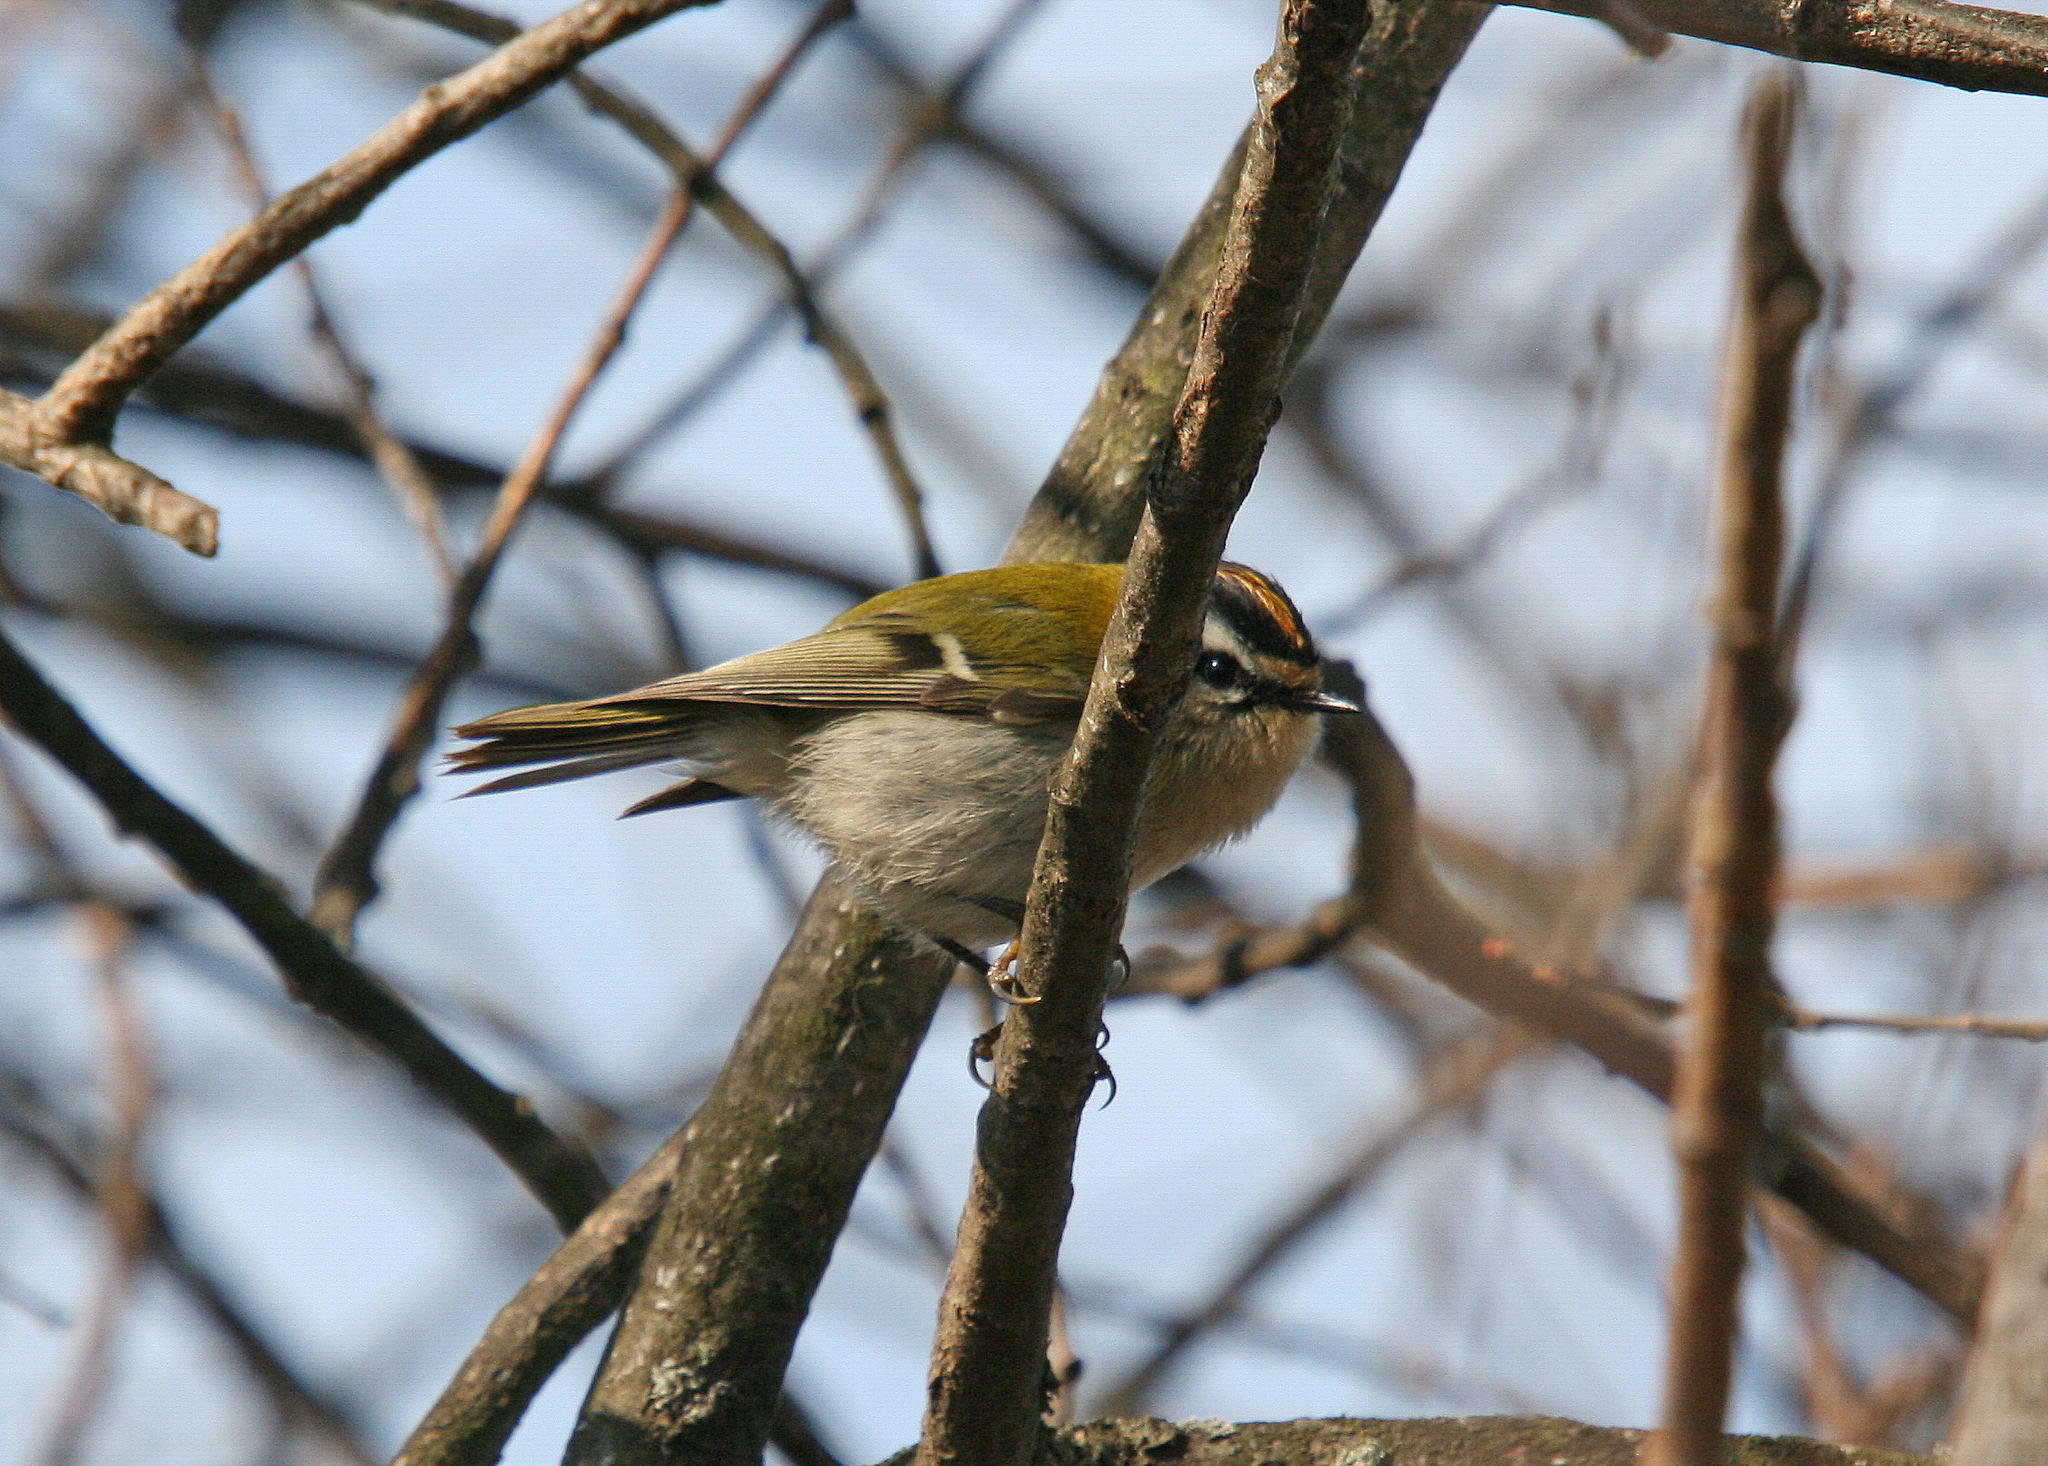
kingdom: Animalia
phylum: Chordata
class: Aves
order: Passeriformes
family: Regulidae
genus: Regulus
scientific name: Regulus ignicapilla
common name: Firecrest
